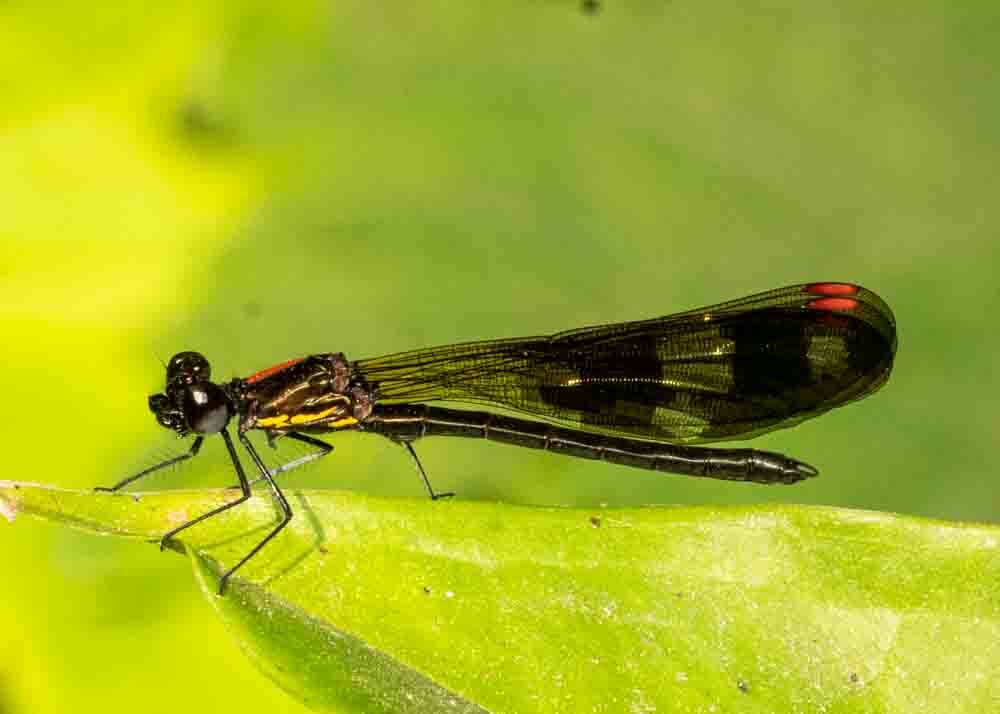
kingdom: Animalia
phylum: Arthropoda
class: Insecta
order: Odonata
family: Chlorocyphidae
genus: Aristocypha
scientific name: Aristocypha fenestrella
